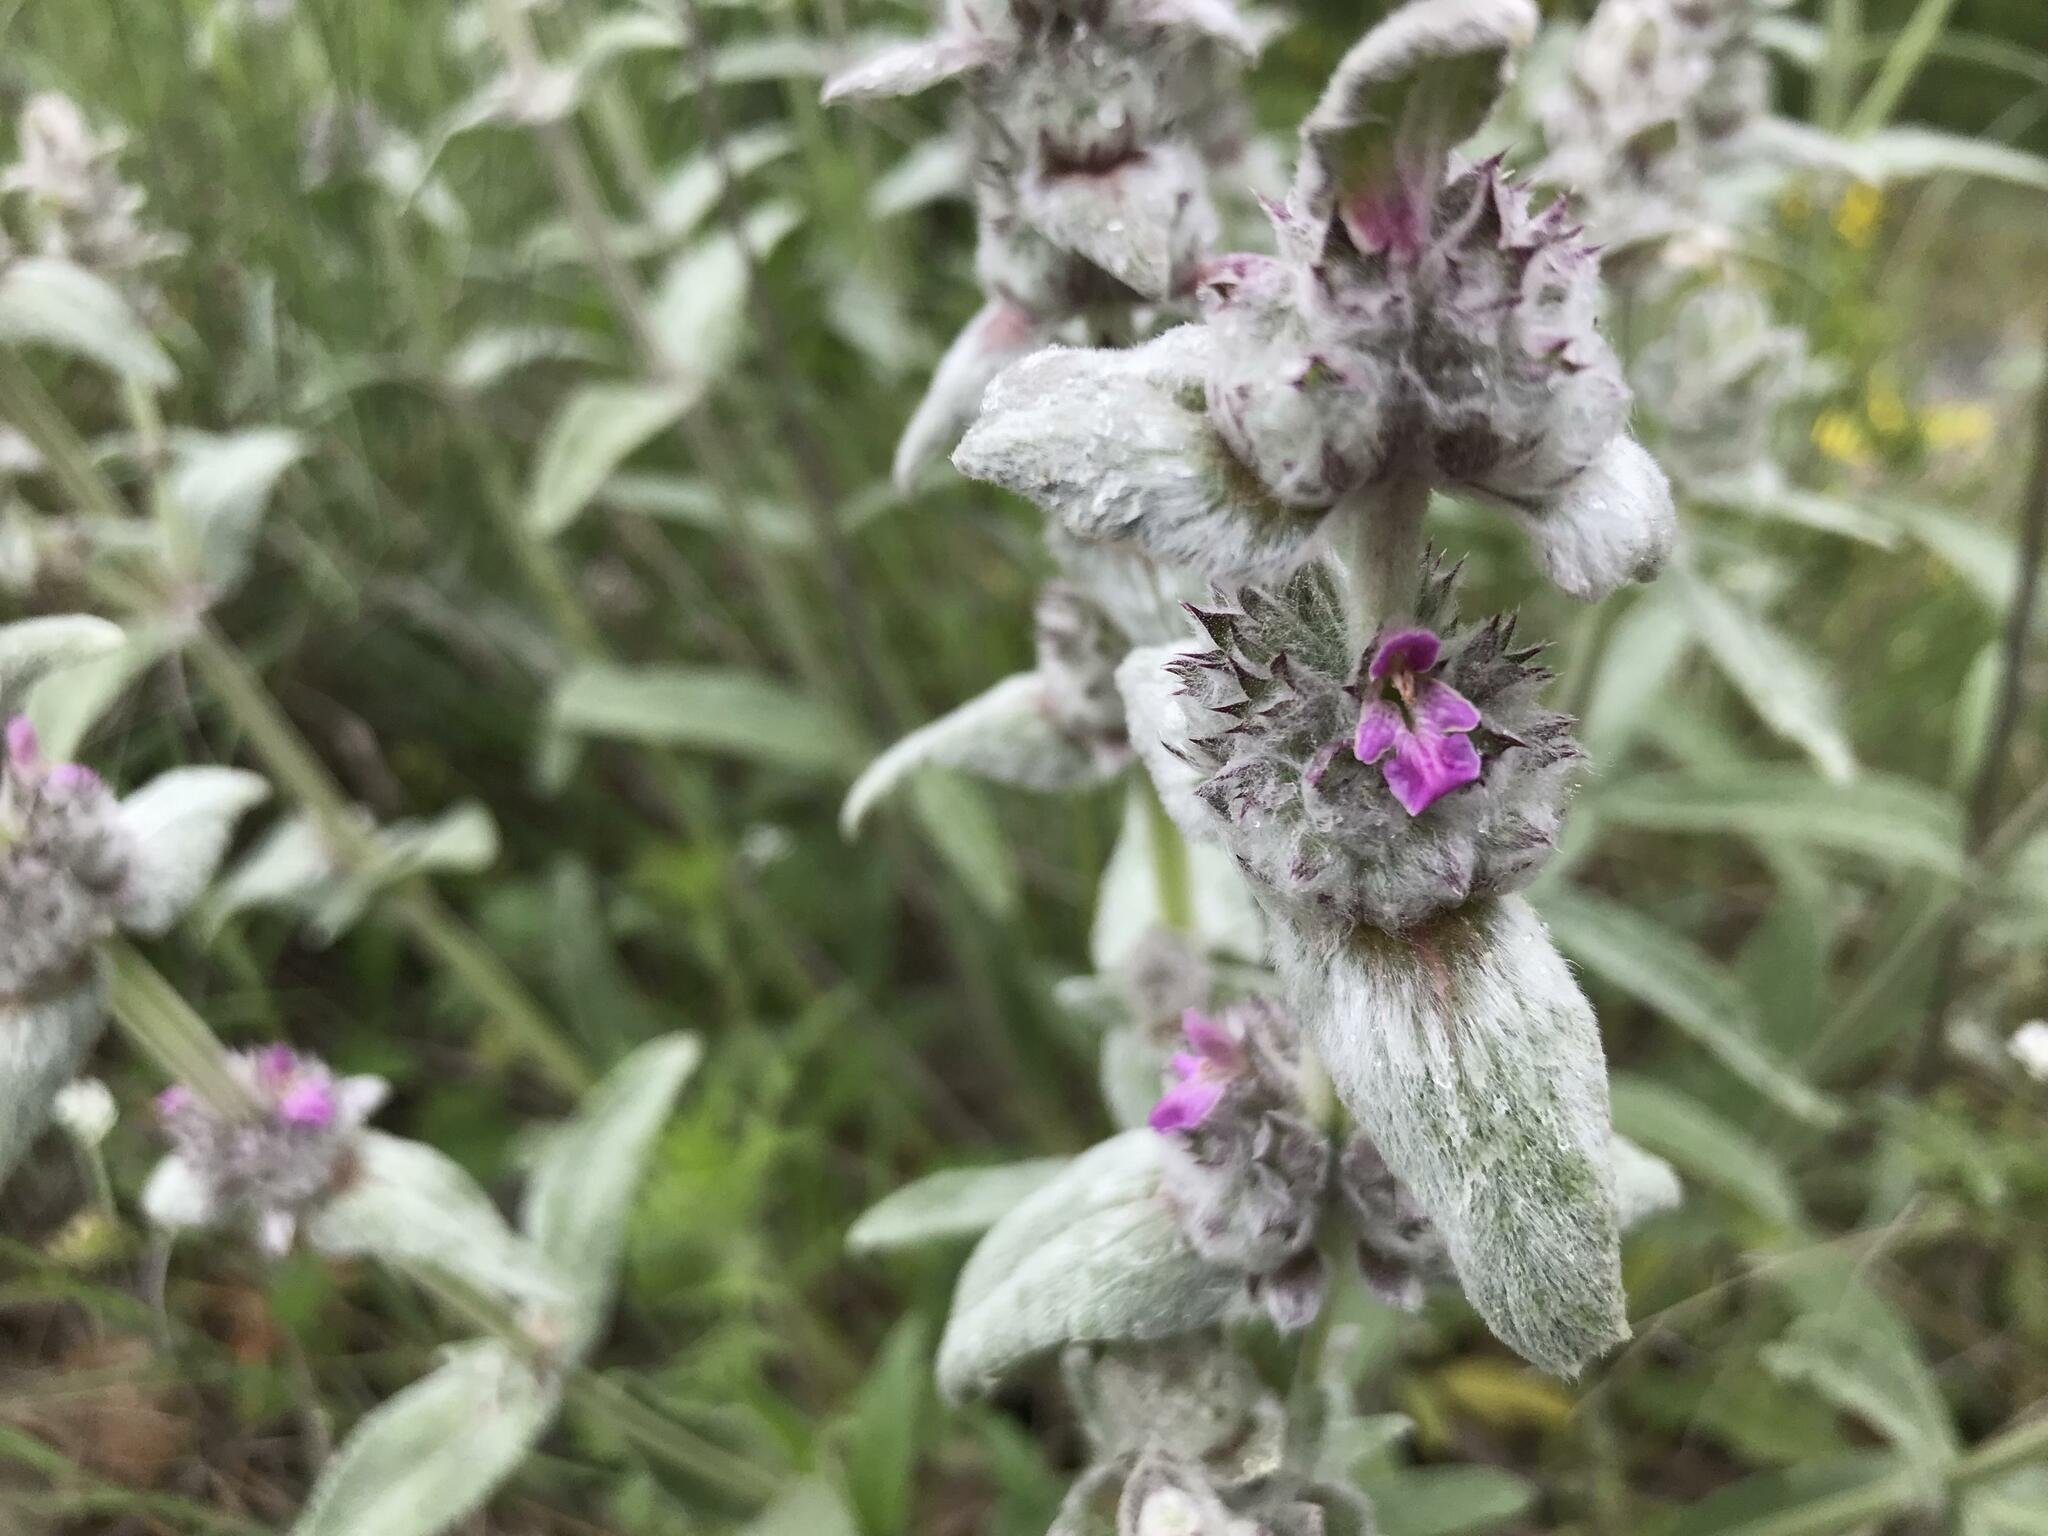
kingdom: Plantae
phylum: Tracheophyta
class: Magnoliopsida
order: Lamiales
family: Lamiaceae
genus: Stachys
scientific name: Stachys cretica
